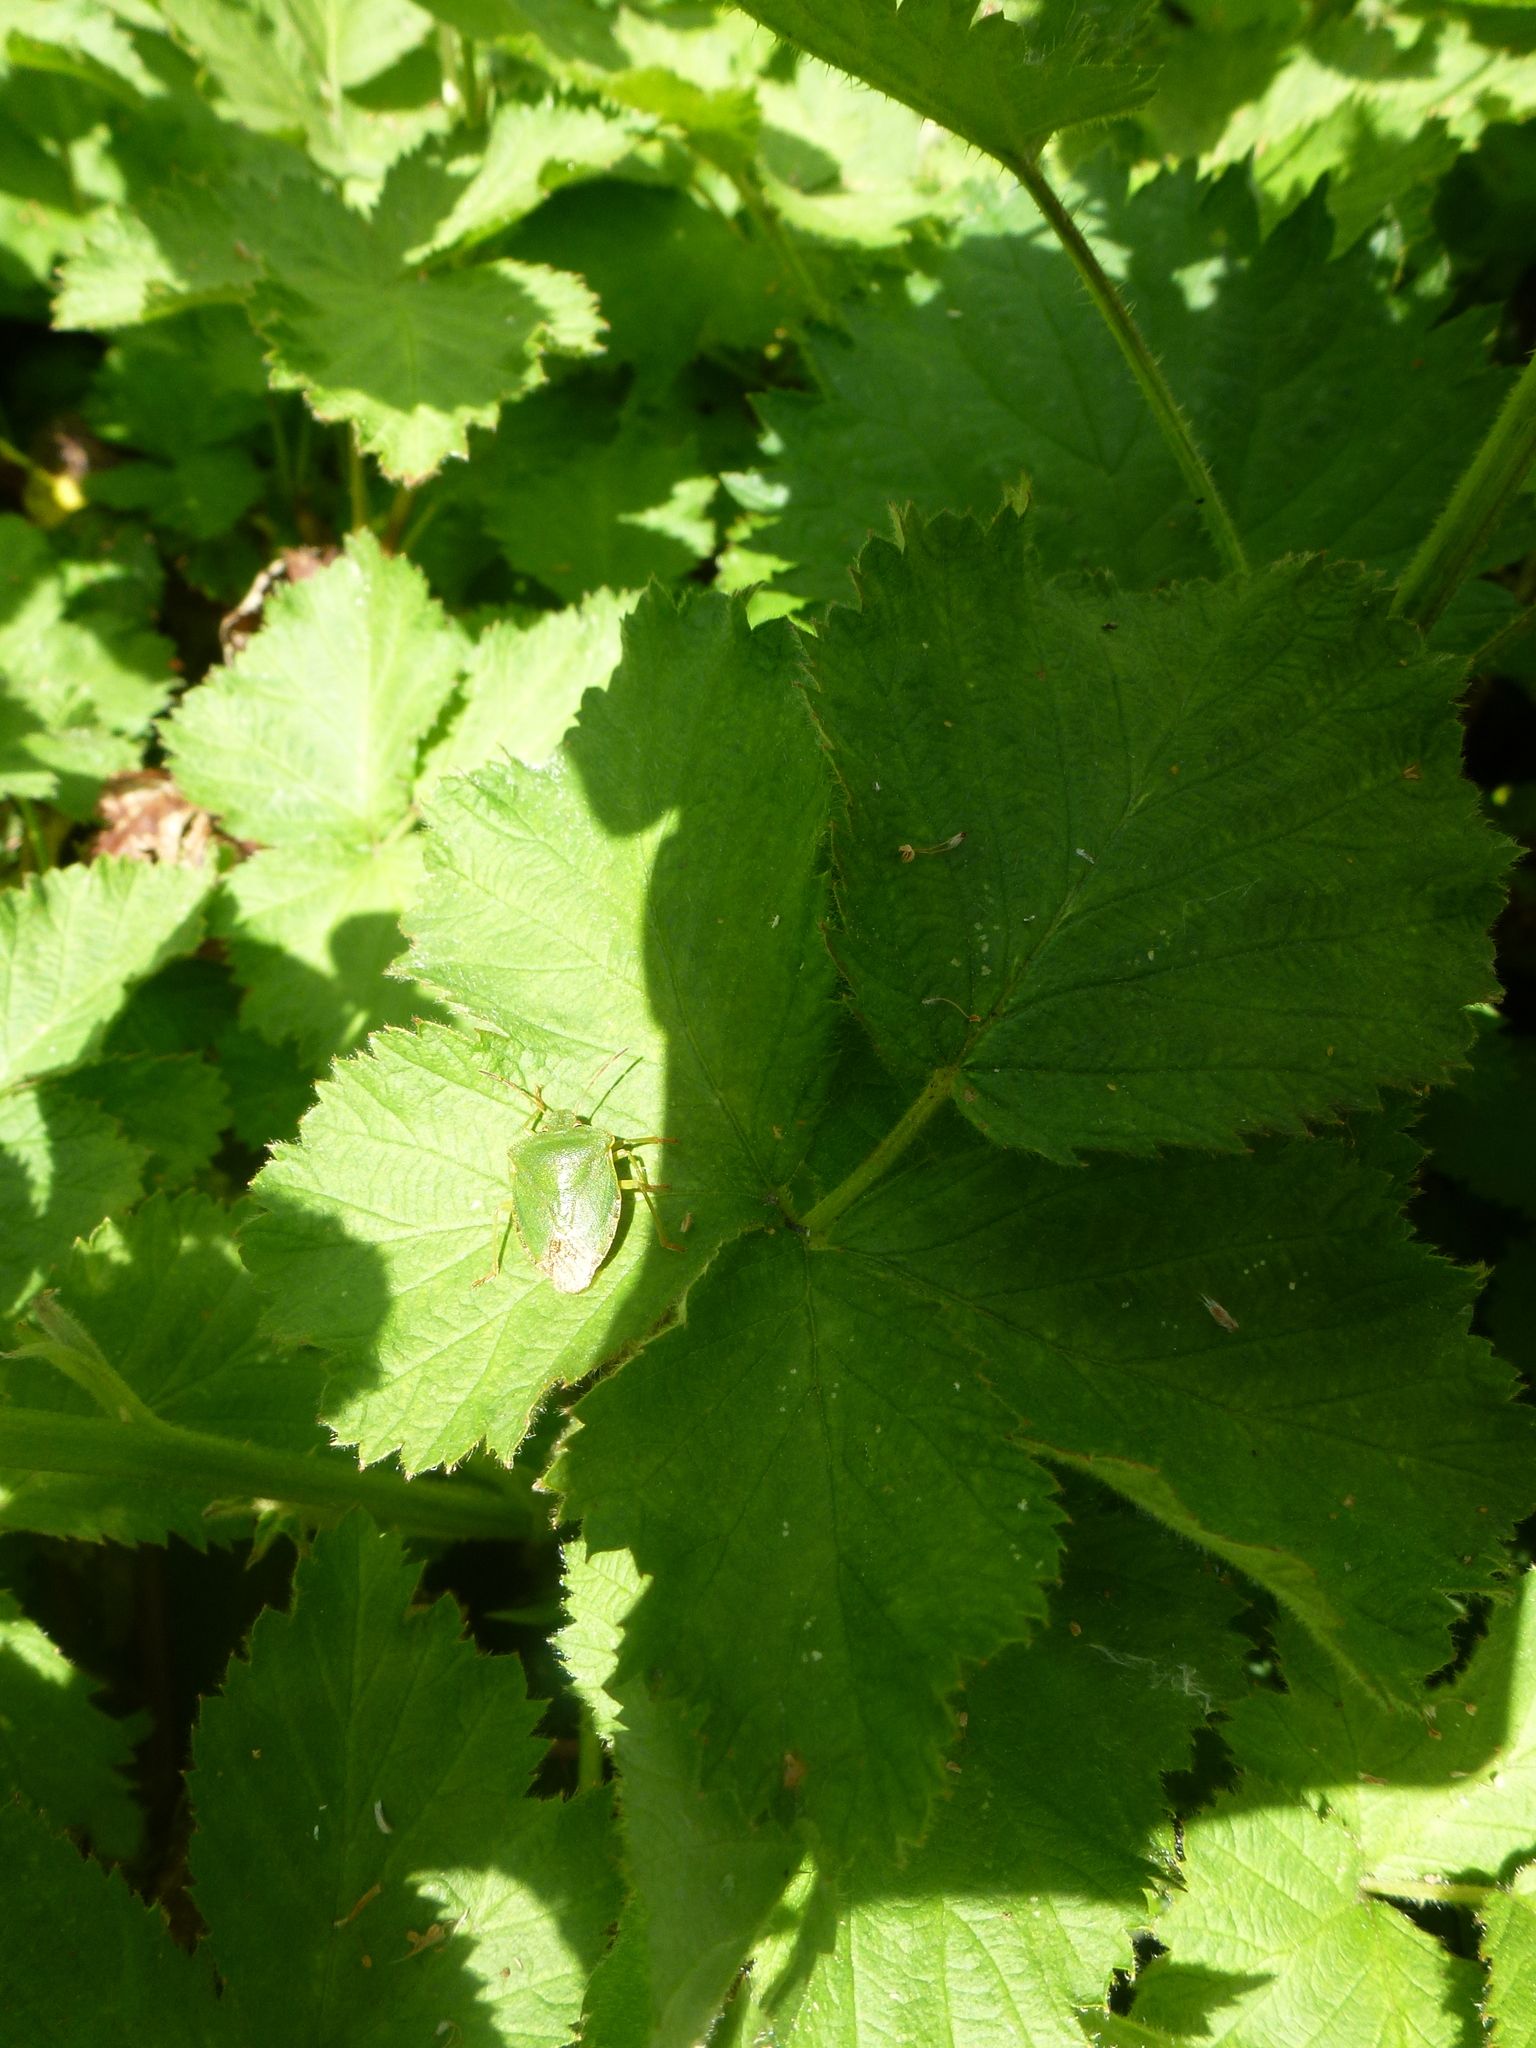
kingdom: Animalia
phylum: Arthropoda
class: Insecta
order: Hemiptera
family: Pentatomidae
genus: Palomena
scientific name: Palomena prasina
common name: Green shieldbug
